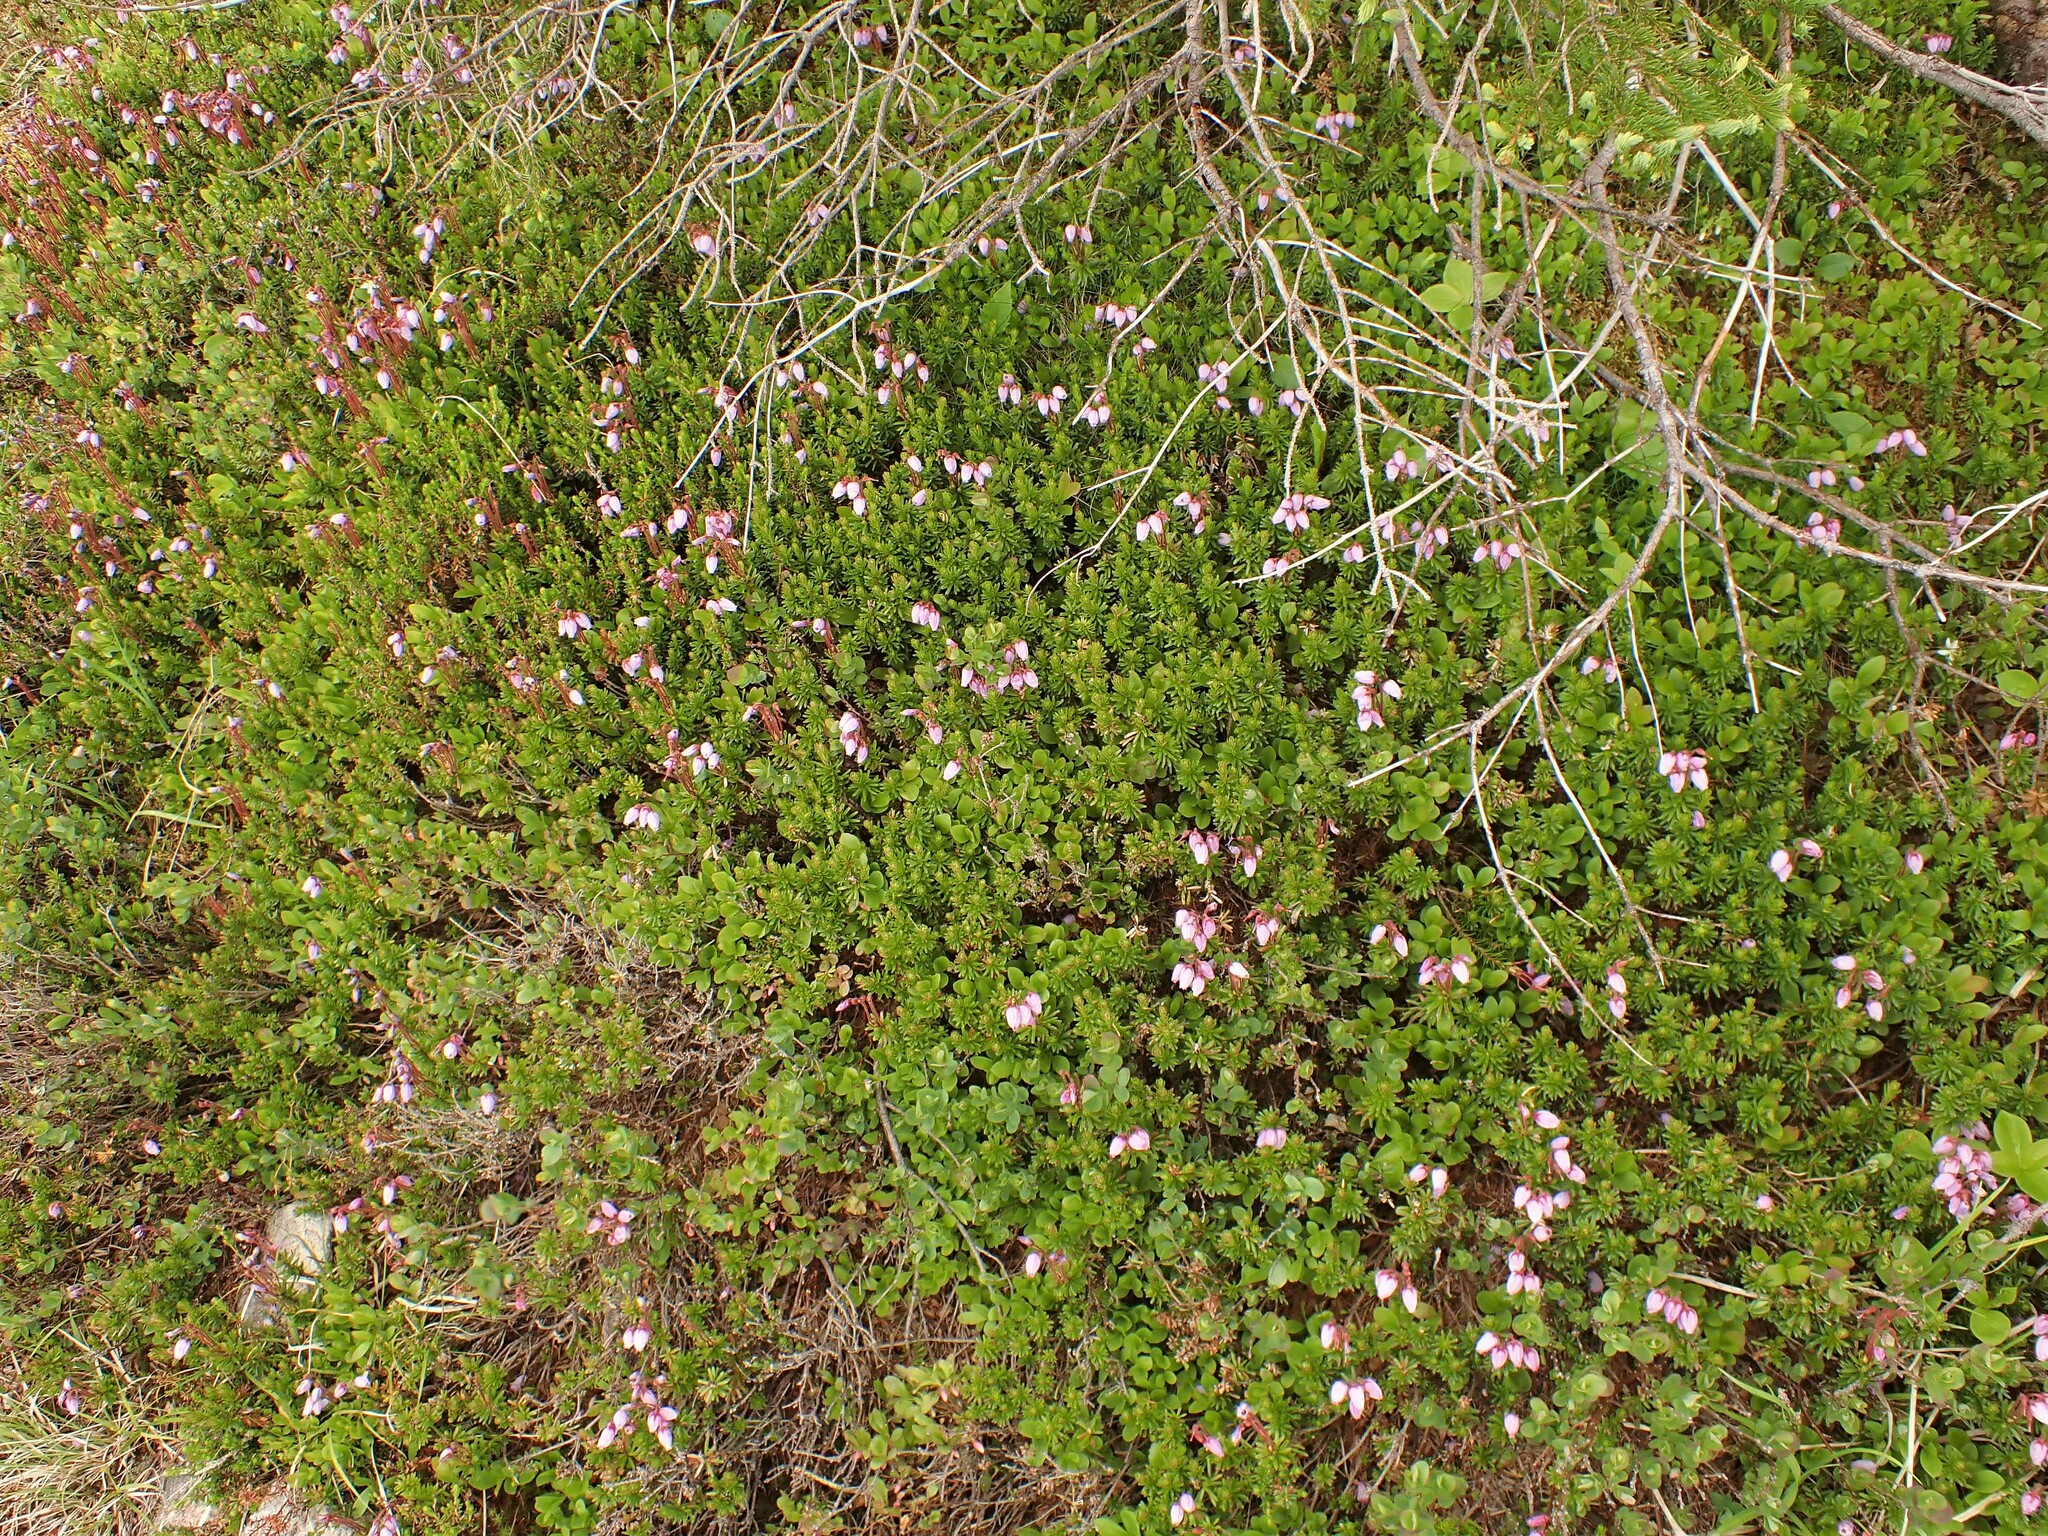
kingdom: Plantae
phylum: Tracheophyta
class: Magnoliopsida
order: Ericales
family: Ericaceae
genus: Phyllodoce
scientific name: Phyllodoce caerulea
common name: Blue heath
